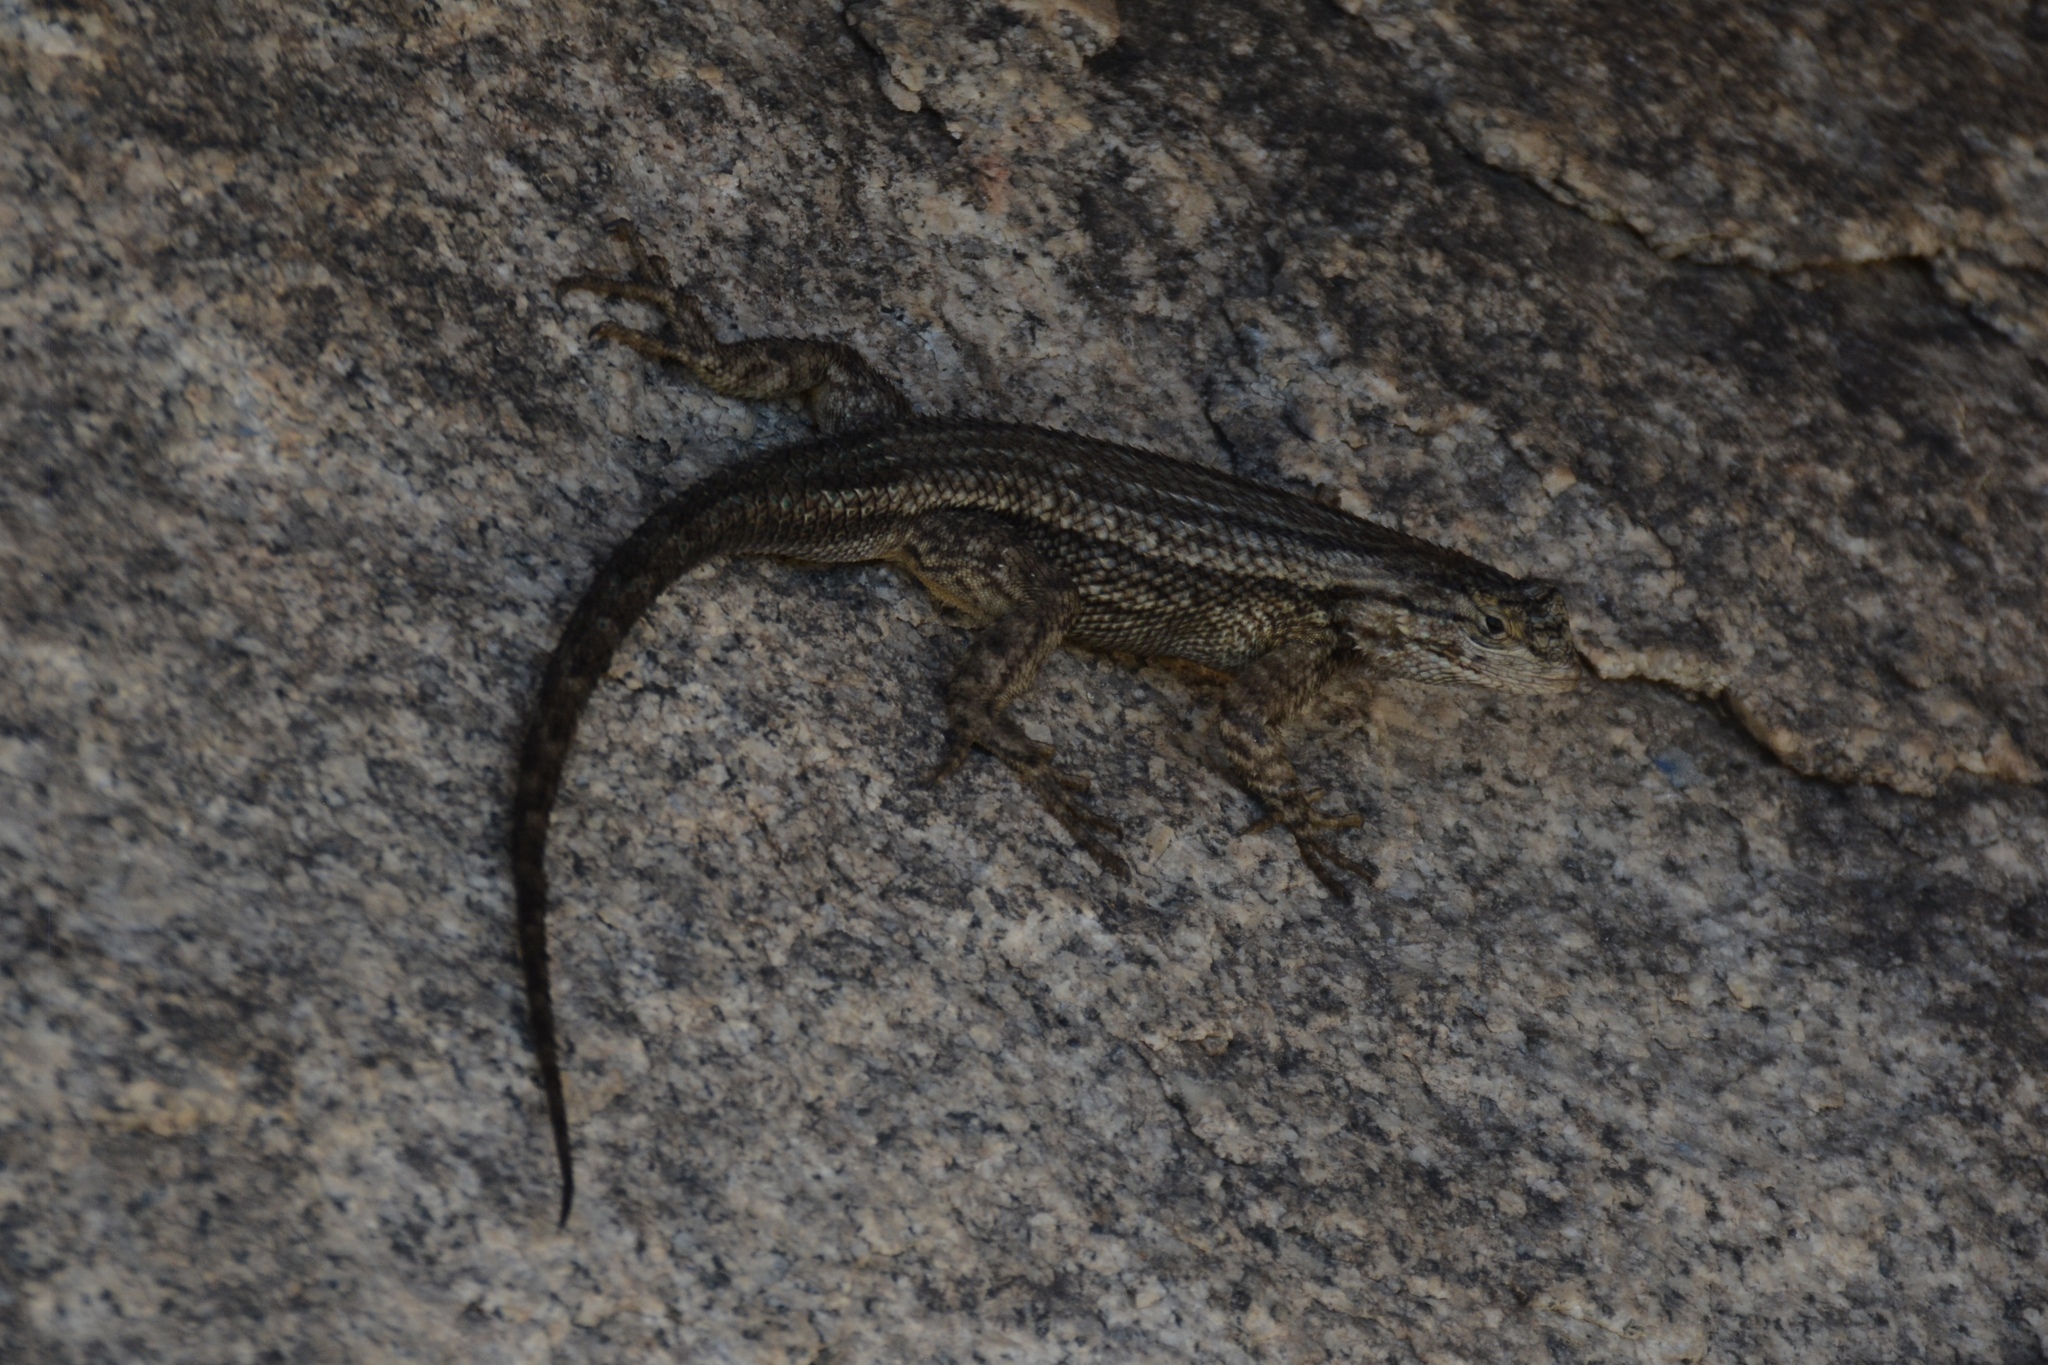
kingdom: Animalia
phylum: Chordata
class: Squamata
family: Phrynosomatidae
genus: Sceloporus
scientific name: Sceloporus occidentalis
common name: Western fence lizard
